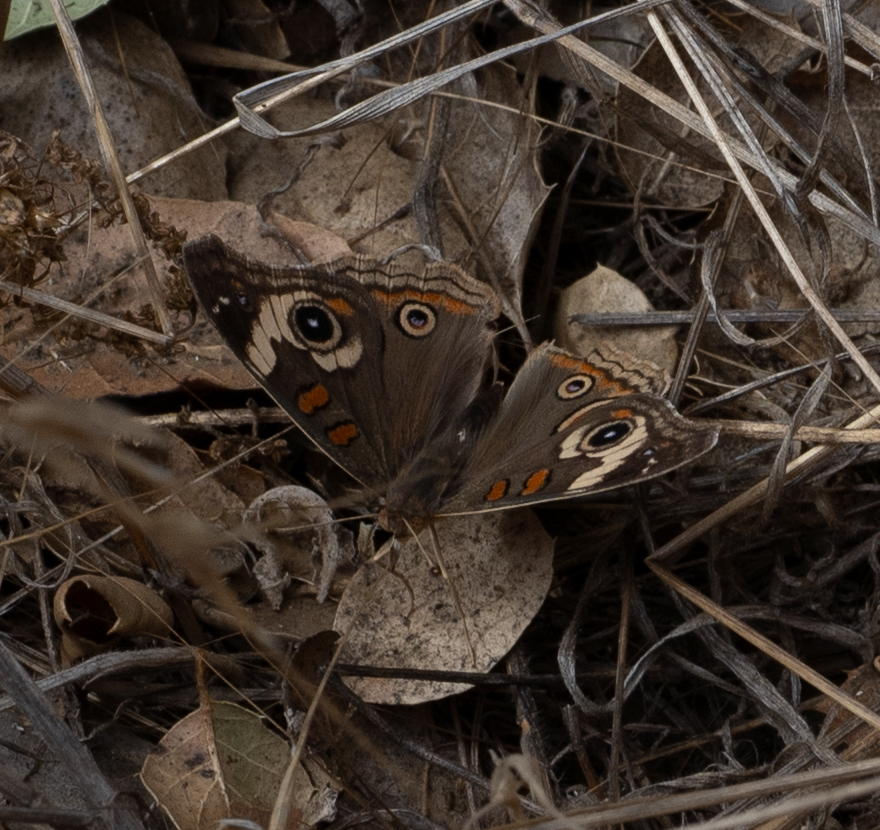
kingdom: Animalia
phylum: Arthropoda
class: Insecta
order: Lepidoptera
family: Nymphalidae
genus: Junonia
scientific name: Junonia grisea
